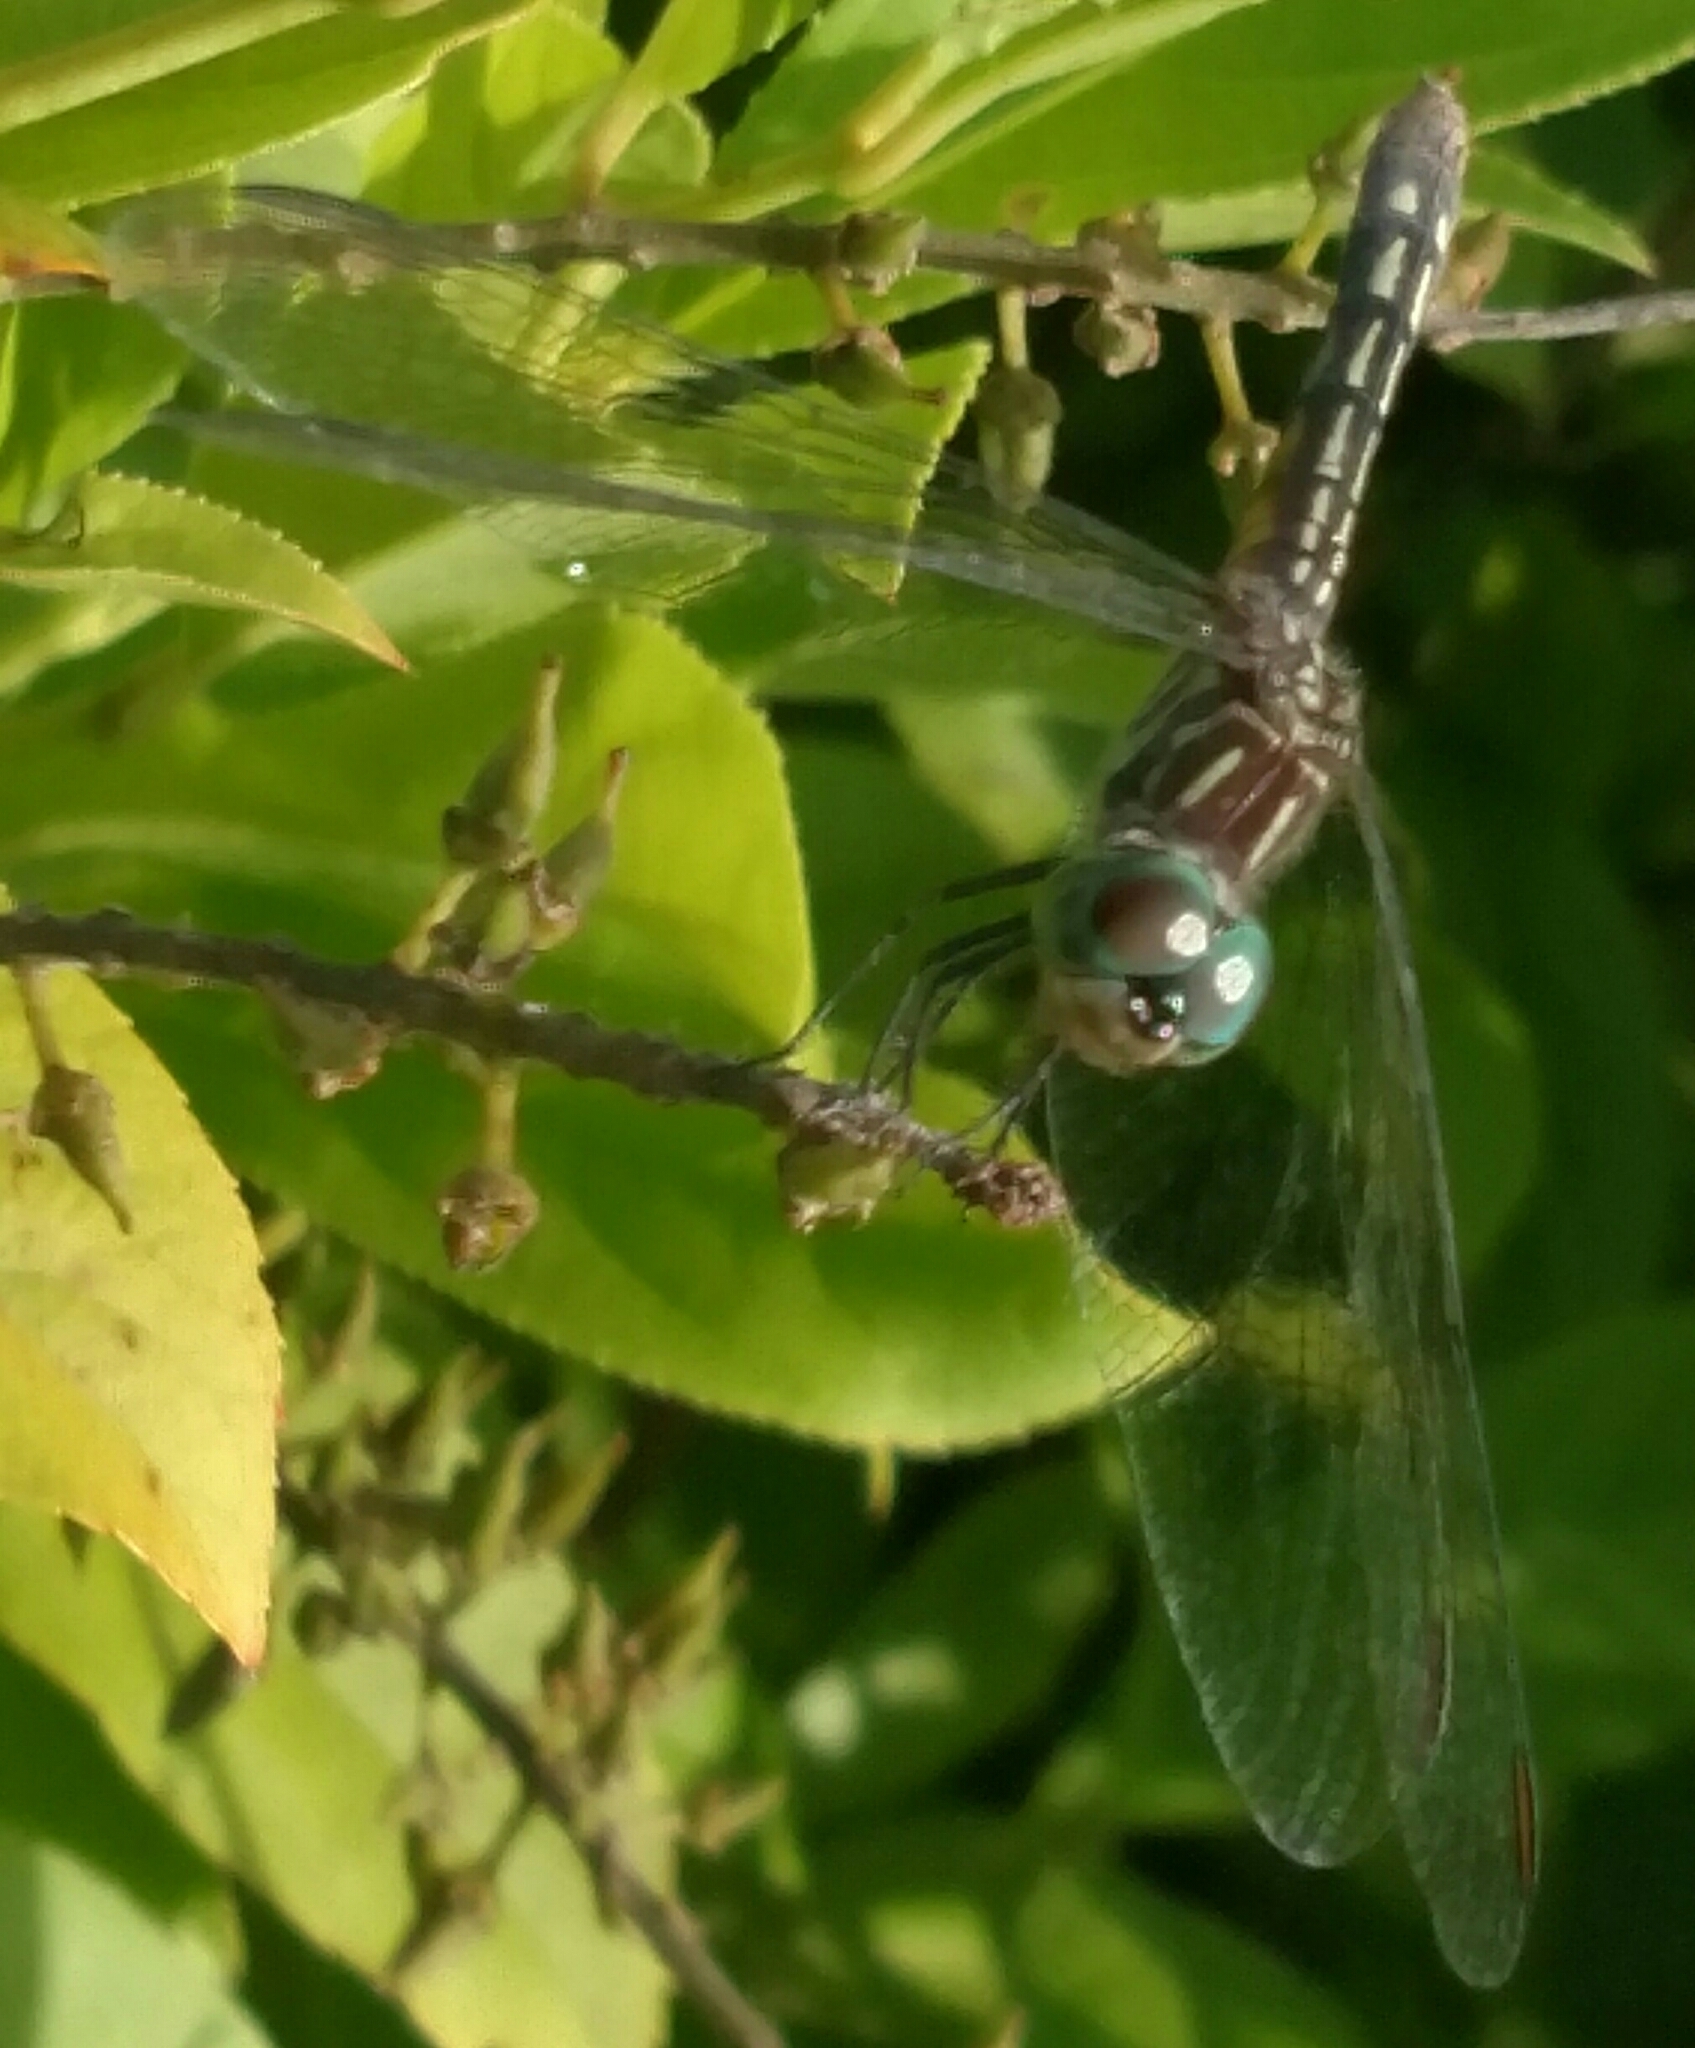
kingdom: Animalia
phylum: Arthropoda
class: Insecta
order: Odonata
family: Libellulidae
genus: Pachydiplax
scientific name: Pachydiplax longipennis
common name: Blue dasher
